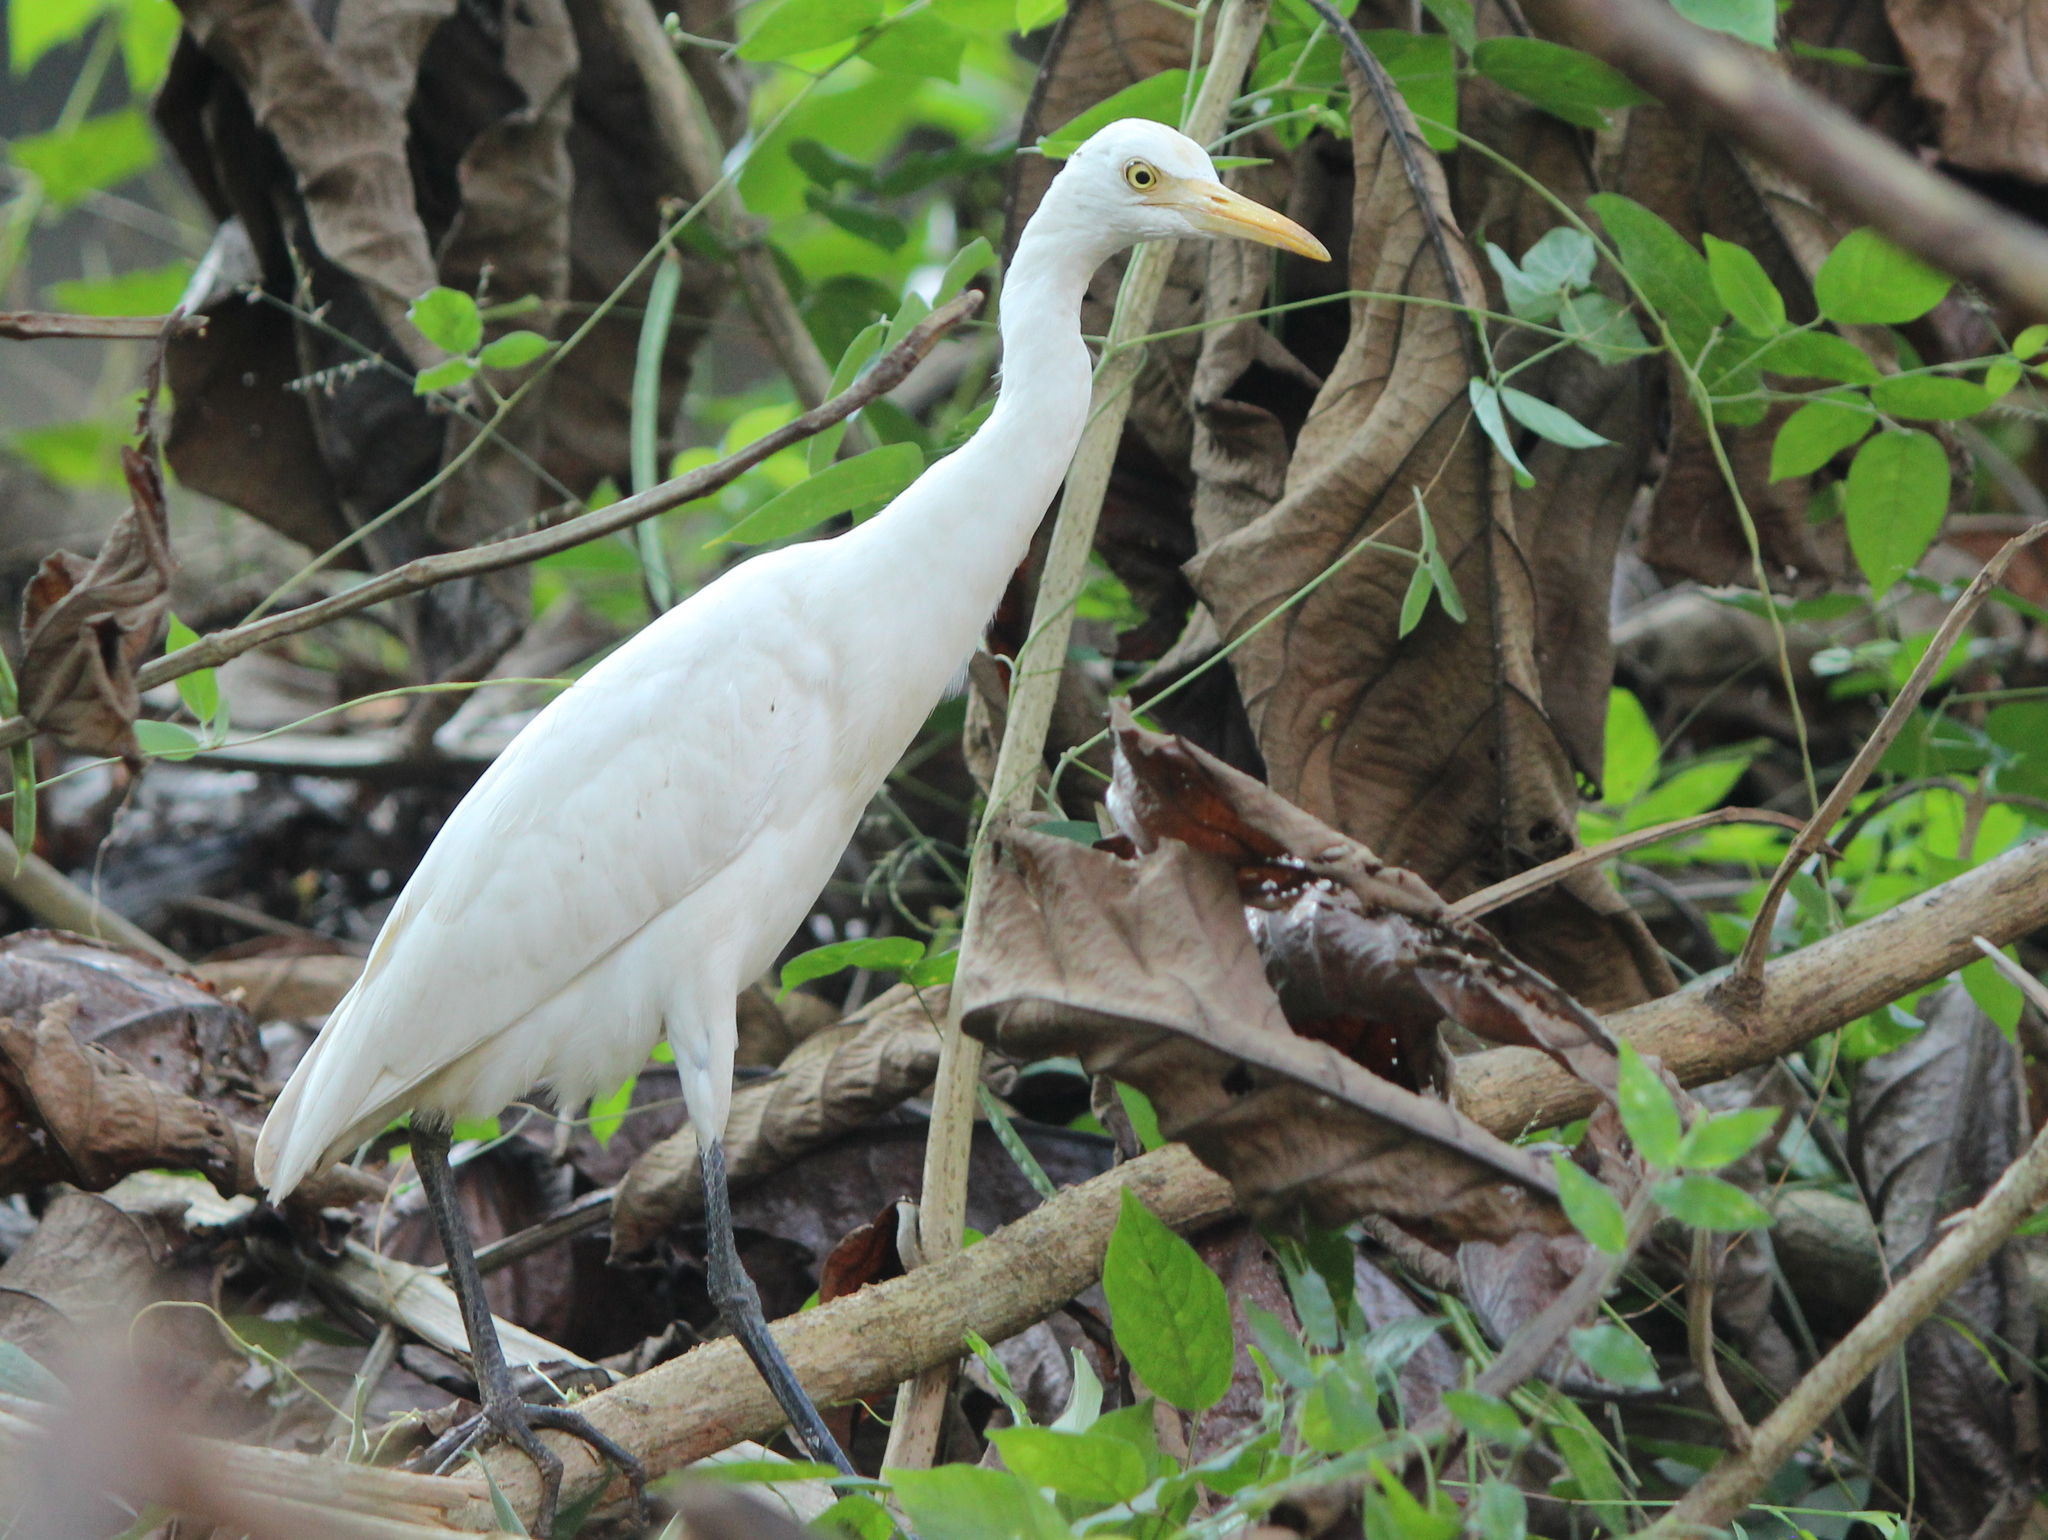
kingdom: Animalia
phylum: Chordata
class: Aves
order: Pelecaniformes
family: Ardeidae
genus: Bubulcus
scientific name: Bubulcus coromandus
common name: Eastern cattle egret
